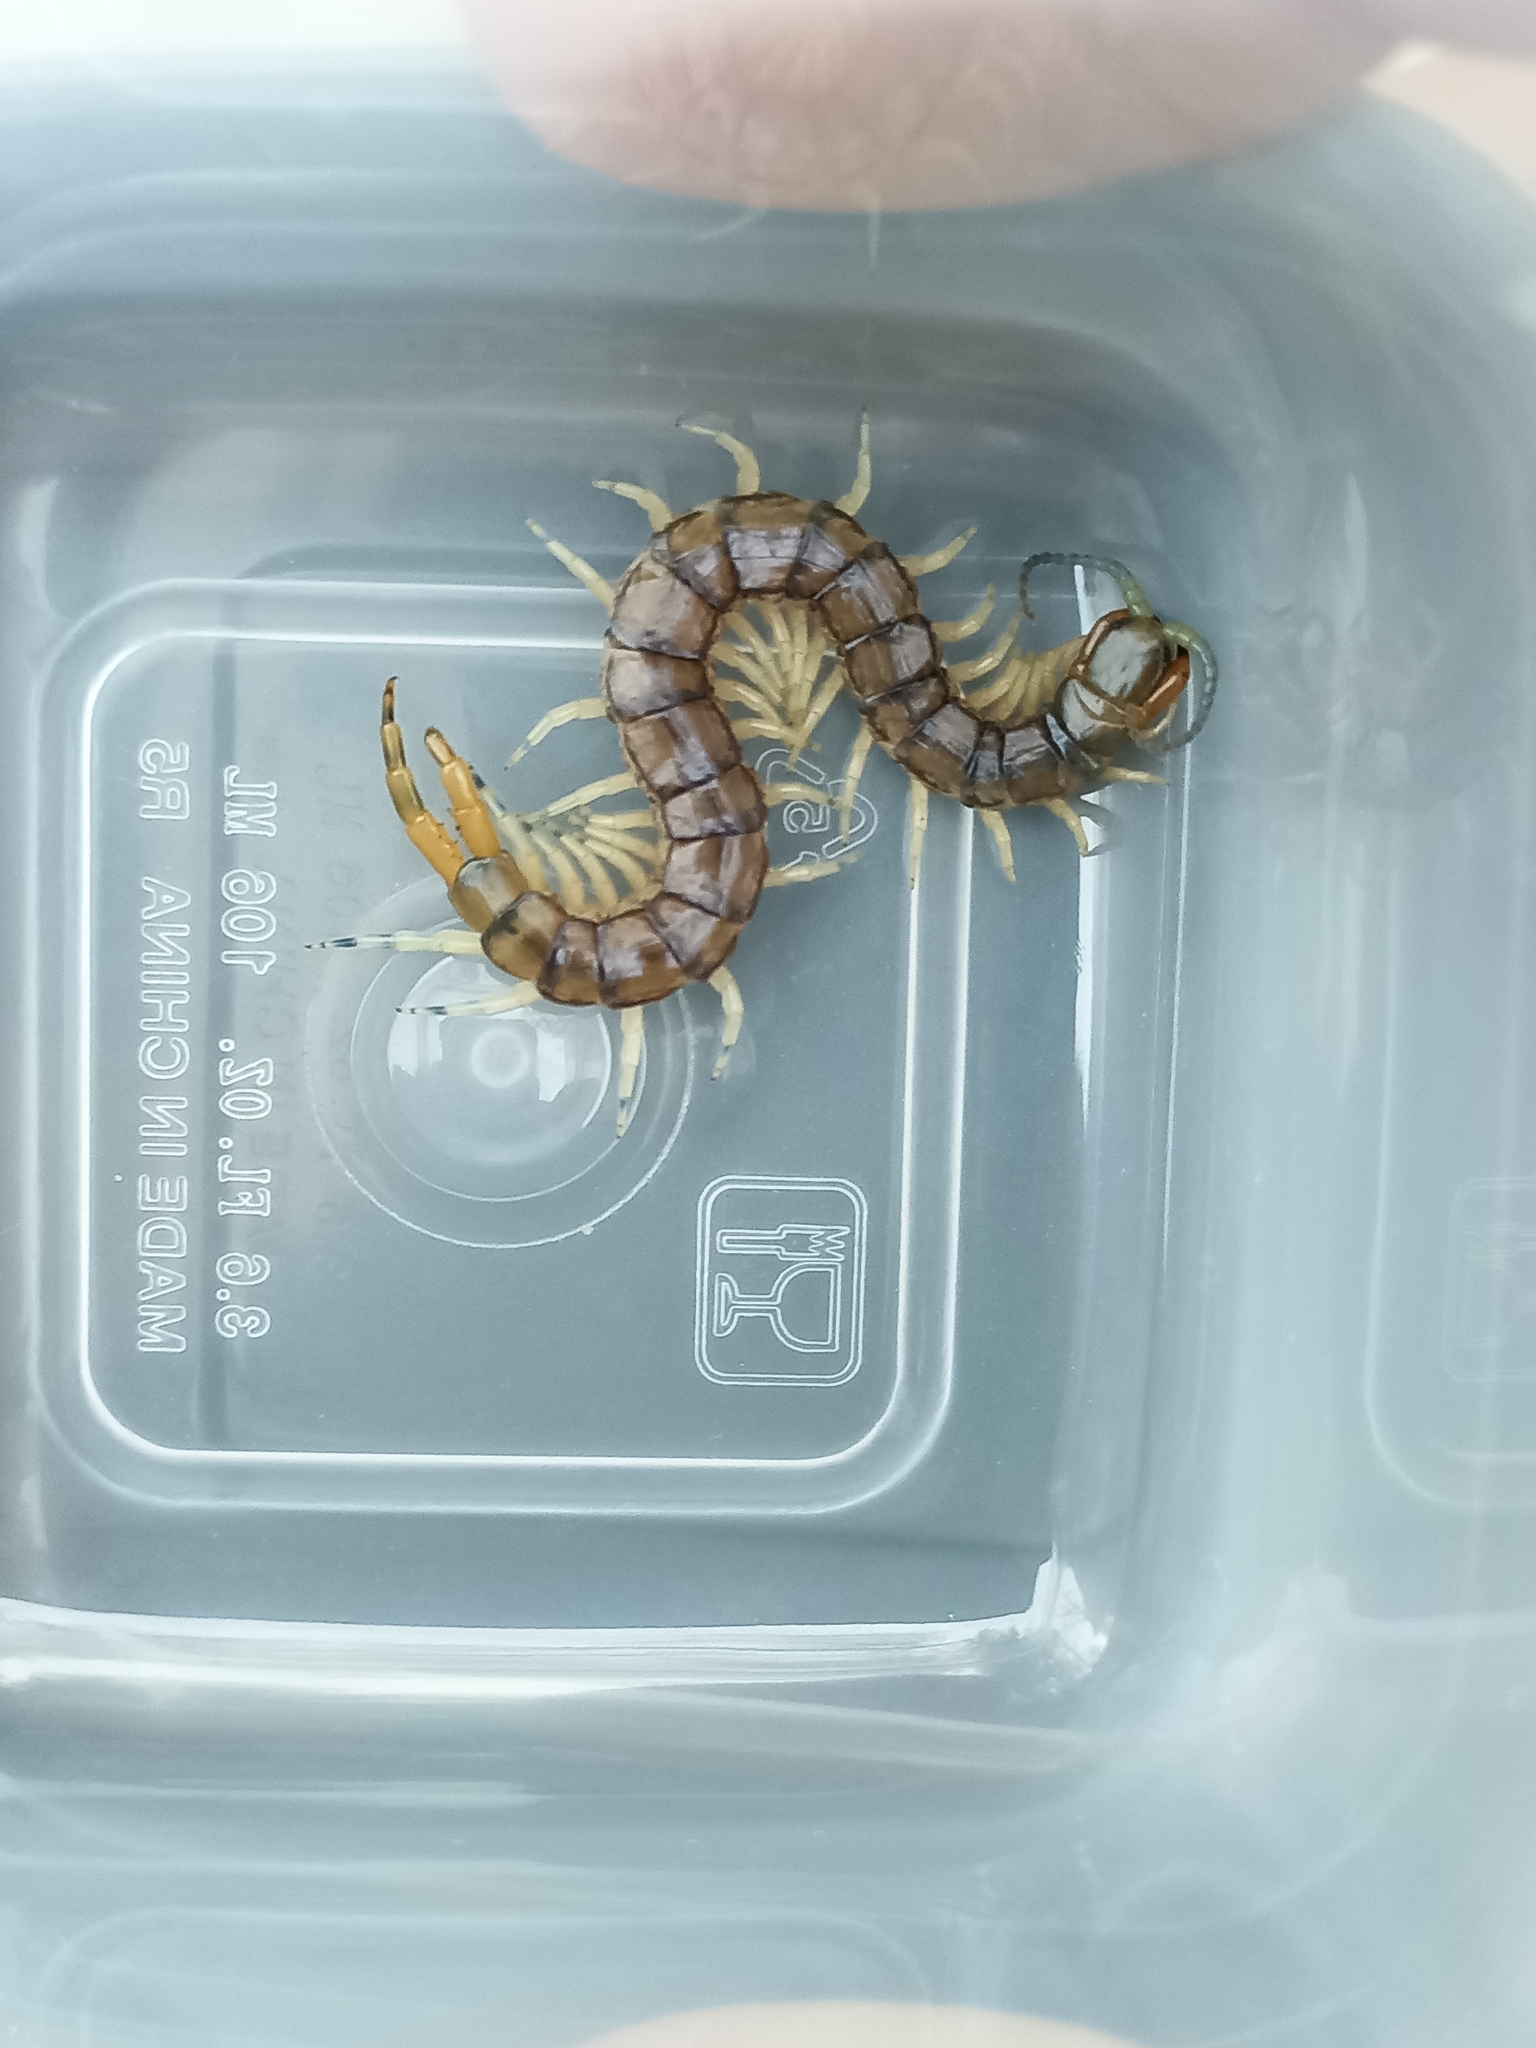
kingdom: Animalia
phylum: Arthropoda
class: Chilopoda
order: Scolopendromorpha
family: Scolopendridae
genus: Hemiscolopendra
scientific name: Hemiscolopendra marginata
